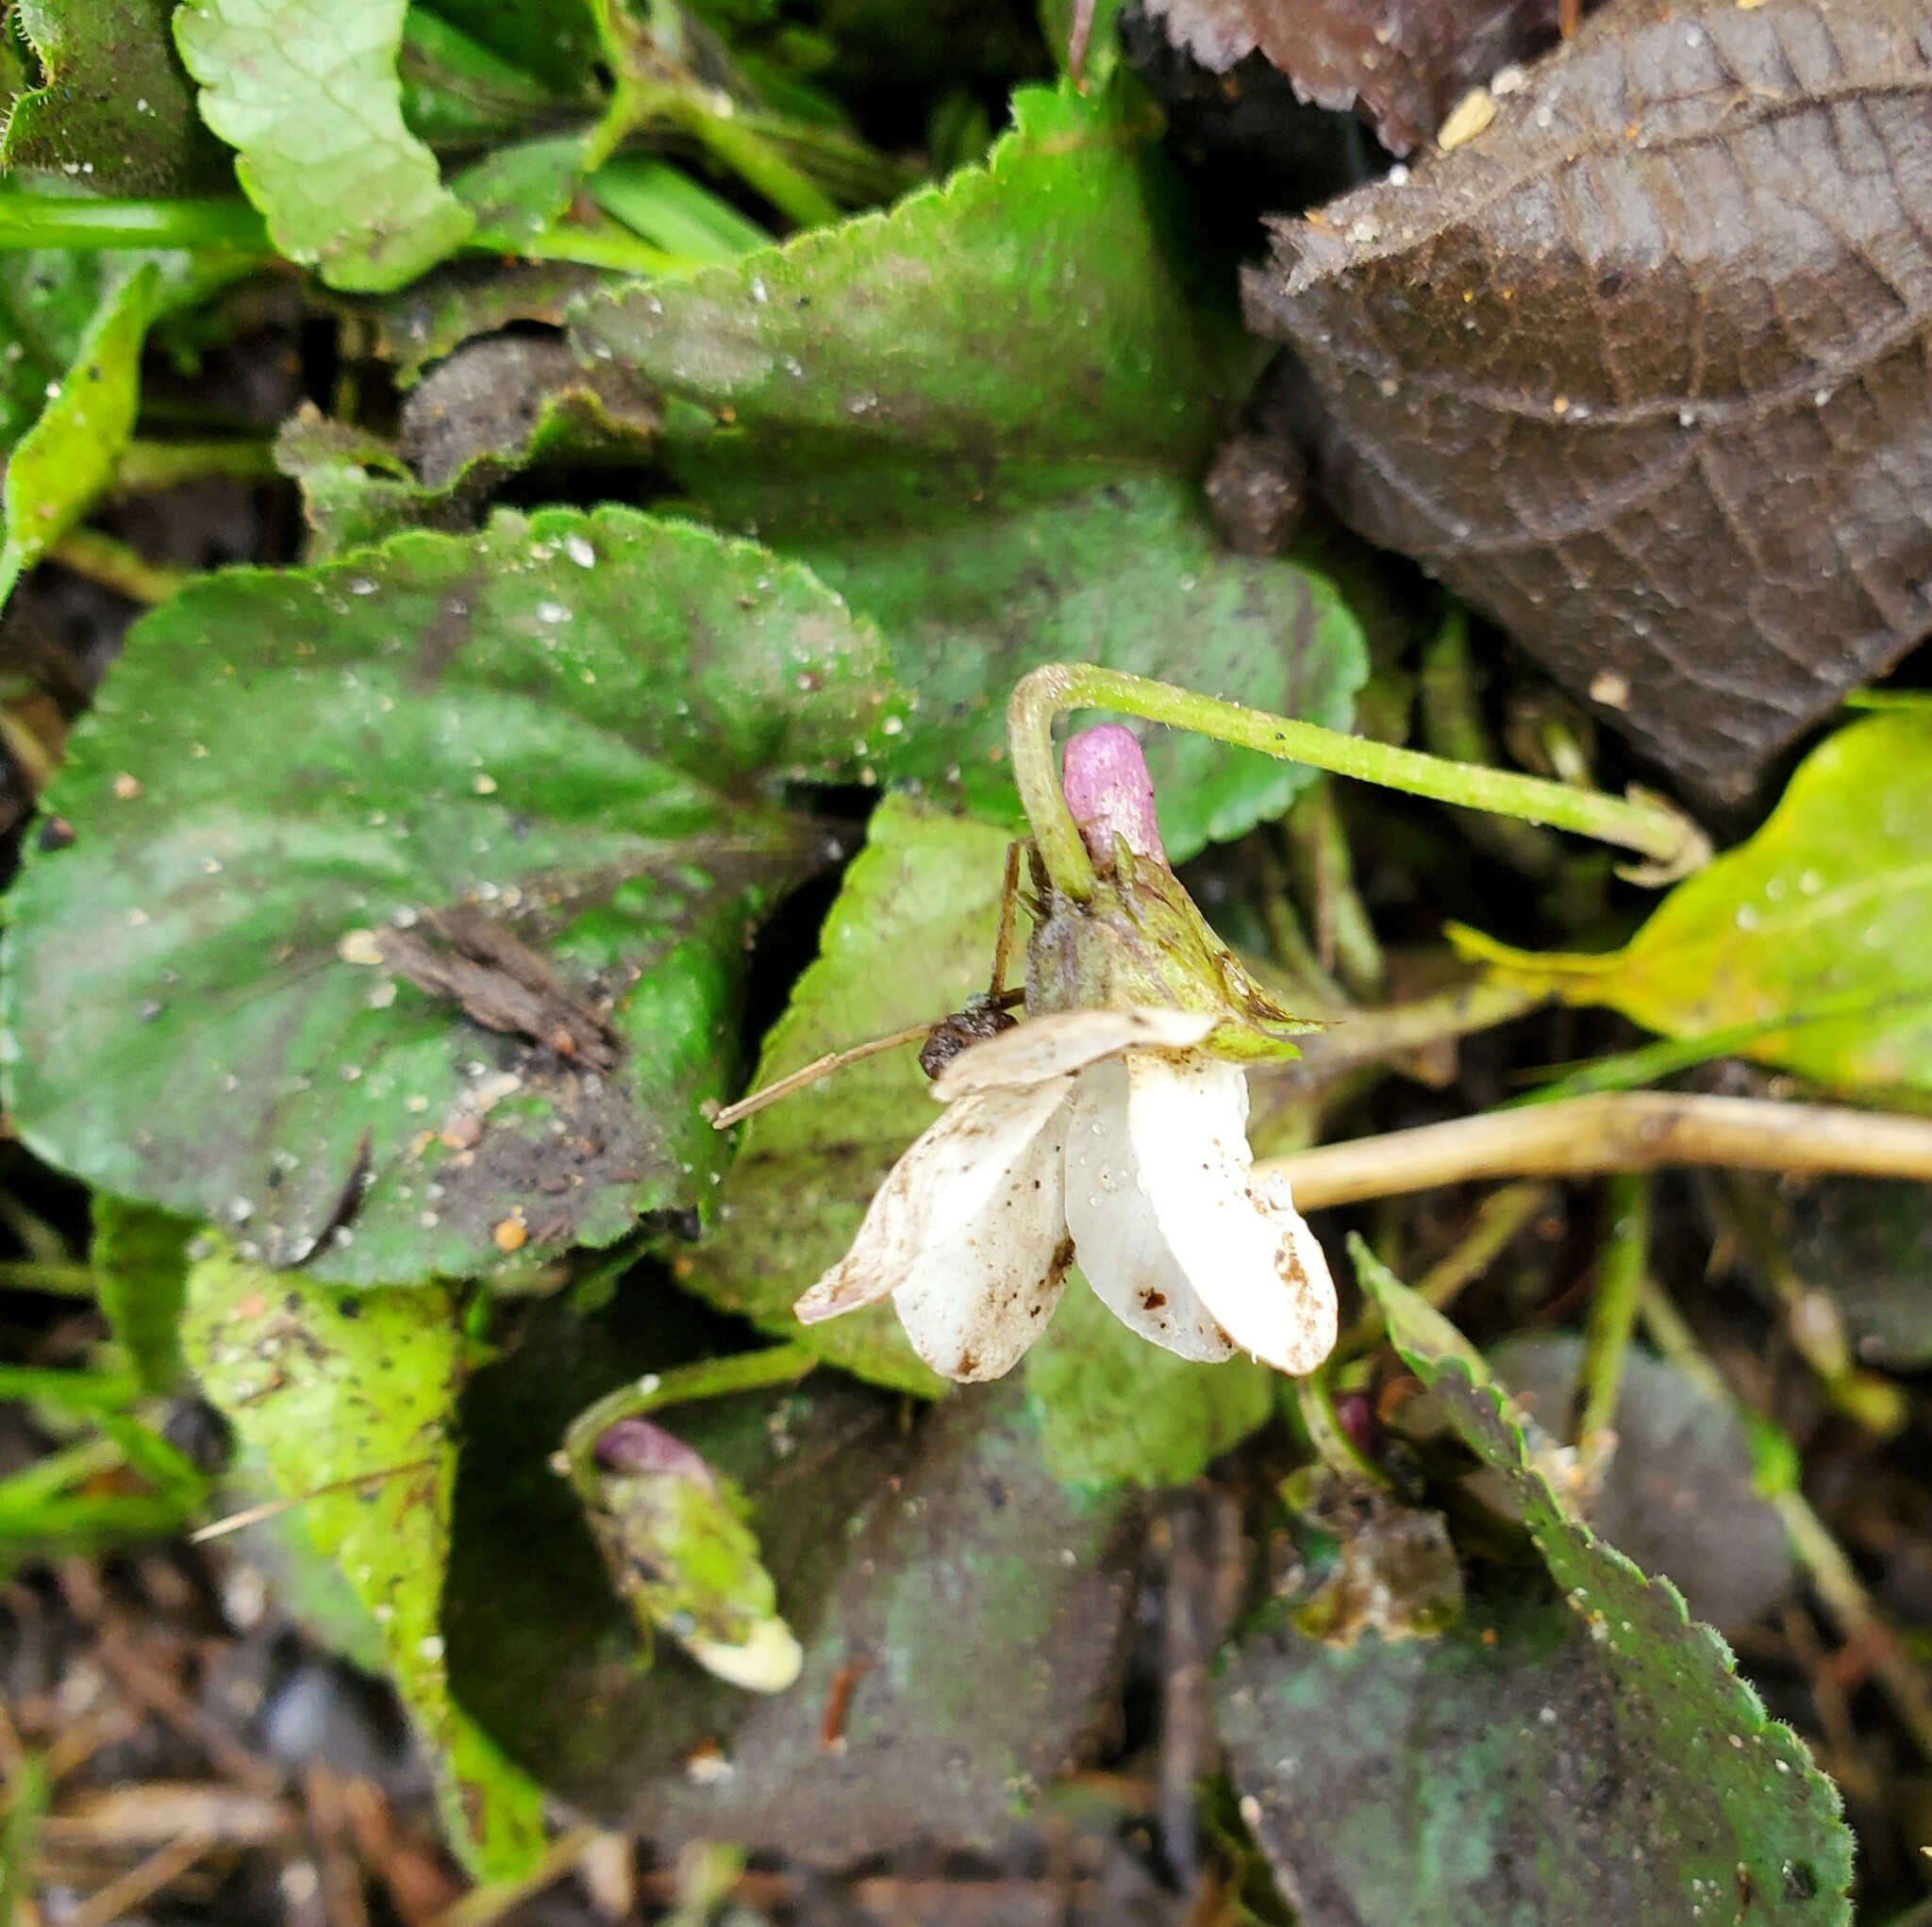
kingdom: Plantae
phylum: Tracheophyta
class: Magnoliopsida
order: Malpighiales
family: Violaceae
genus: Viola
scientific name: Viola odorata
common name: Sweet violet
